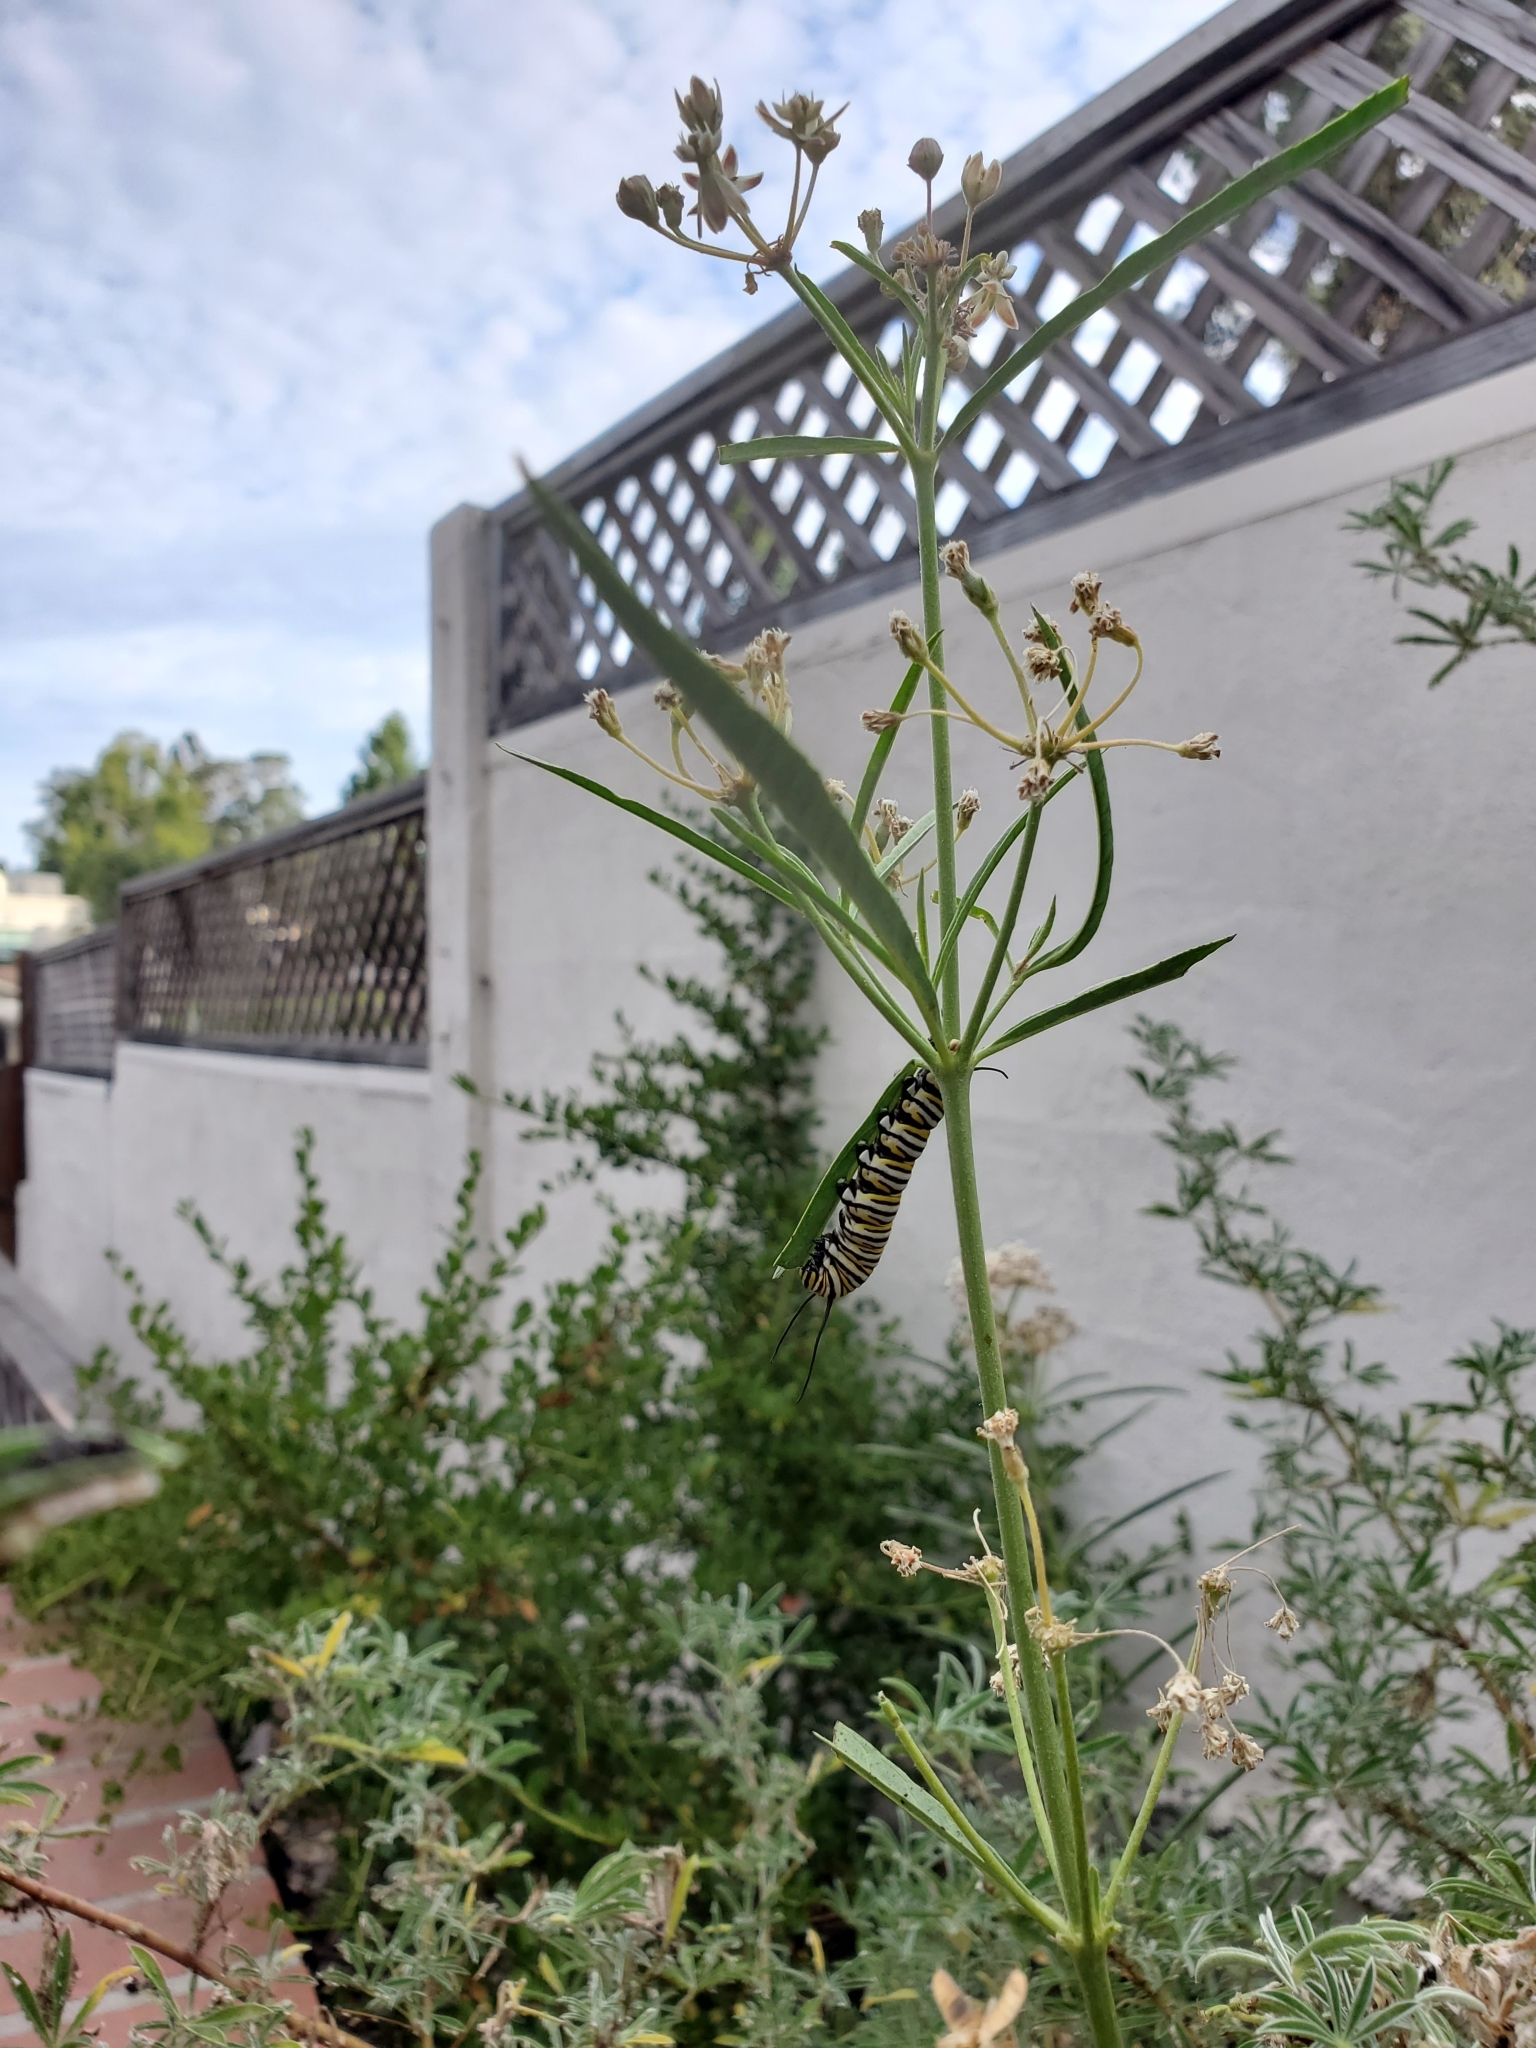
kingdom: Animalia
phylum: Arthropoda
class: Insecta
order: Lepidoptera
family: Nymphalidae
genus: Danaus
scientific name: Danaus plexippus
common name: Monarch
